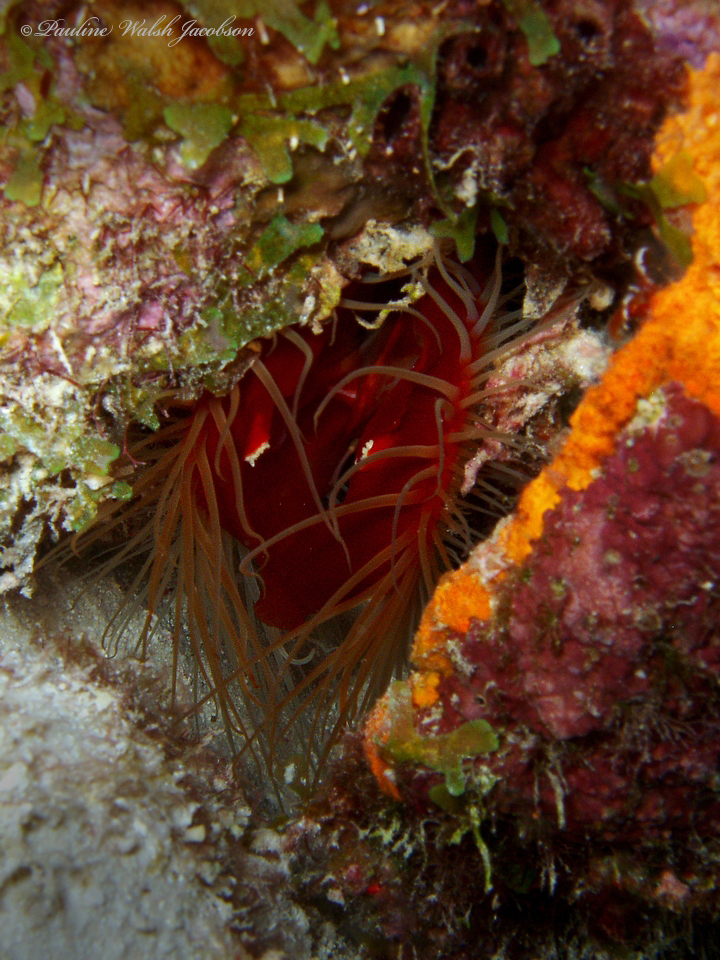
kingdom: Animalia
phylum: Mollusca
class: Bivalvia
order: Limida
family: Limidae
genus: Ctenoides
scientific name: Ctenoides scaber
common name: Rough fileclam
